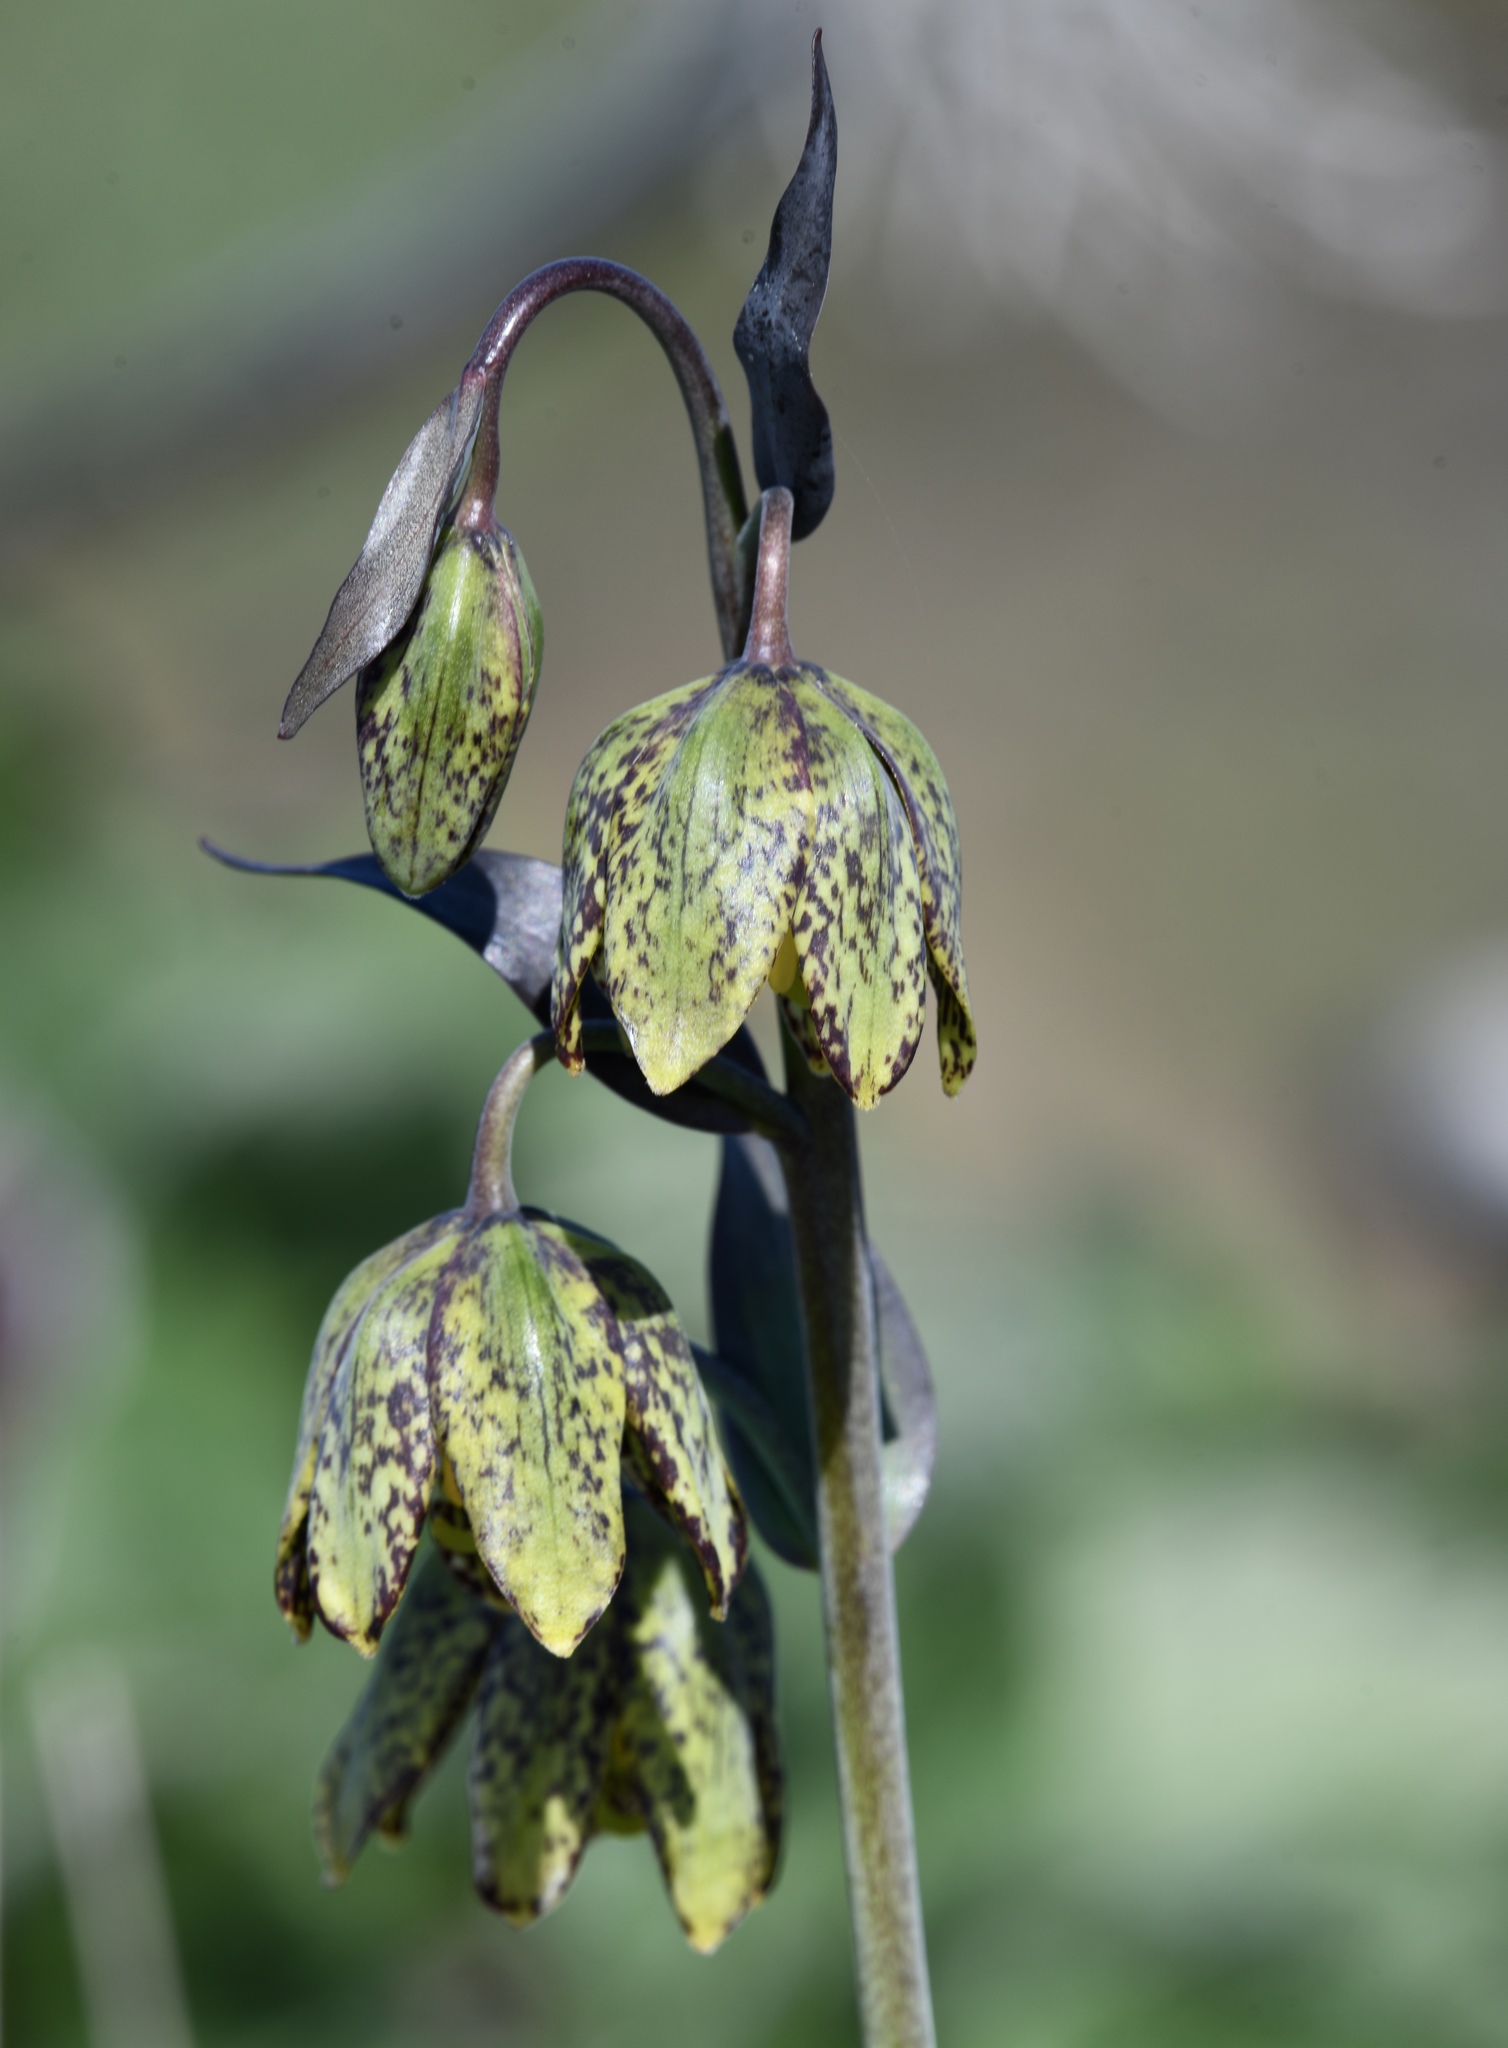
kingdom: Plantae
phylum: Tracheophyta
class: Liliopsida
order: Liliales
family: Liliaceae
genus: Fritillaria
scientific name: Fritillaria affinis
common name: Ojai fritillary
